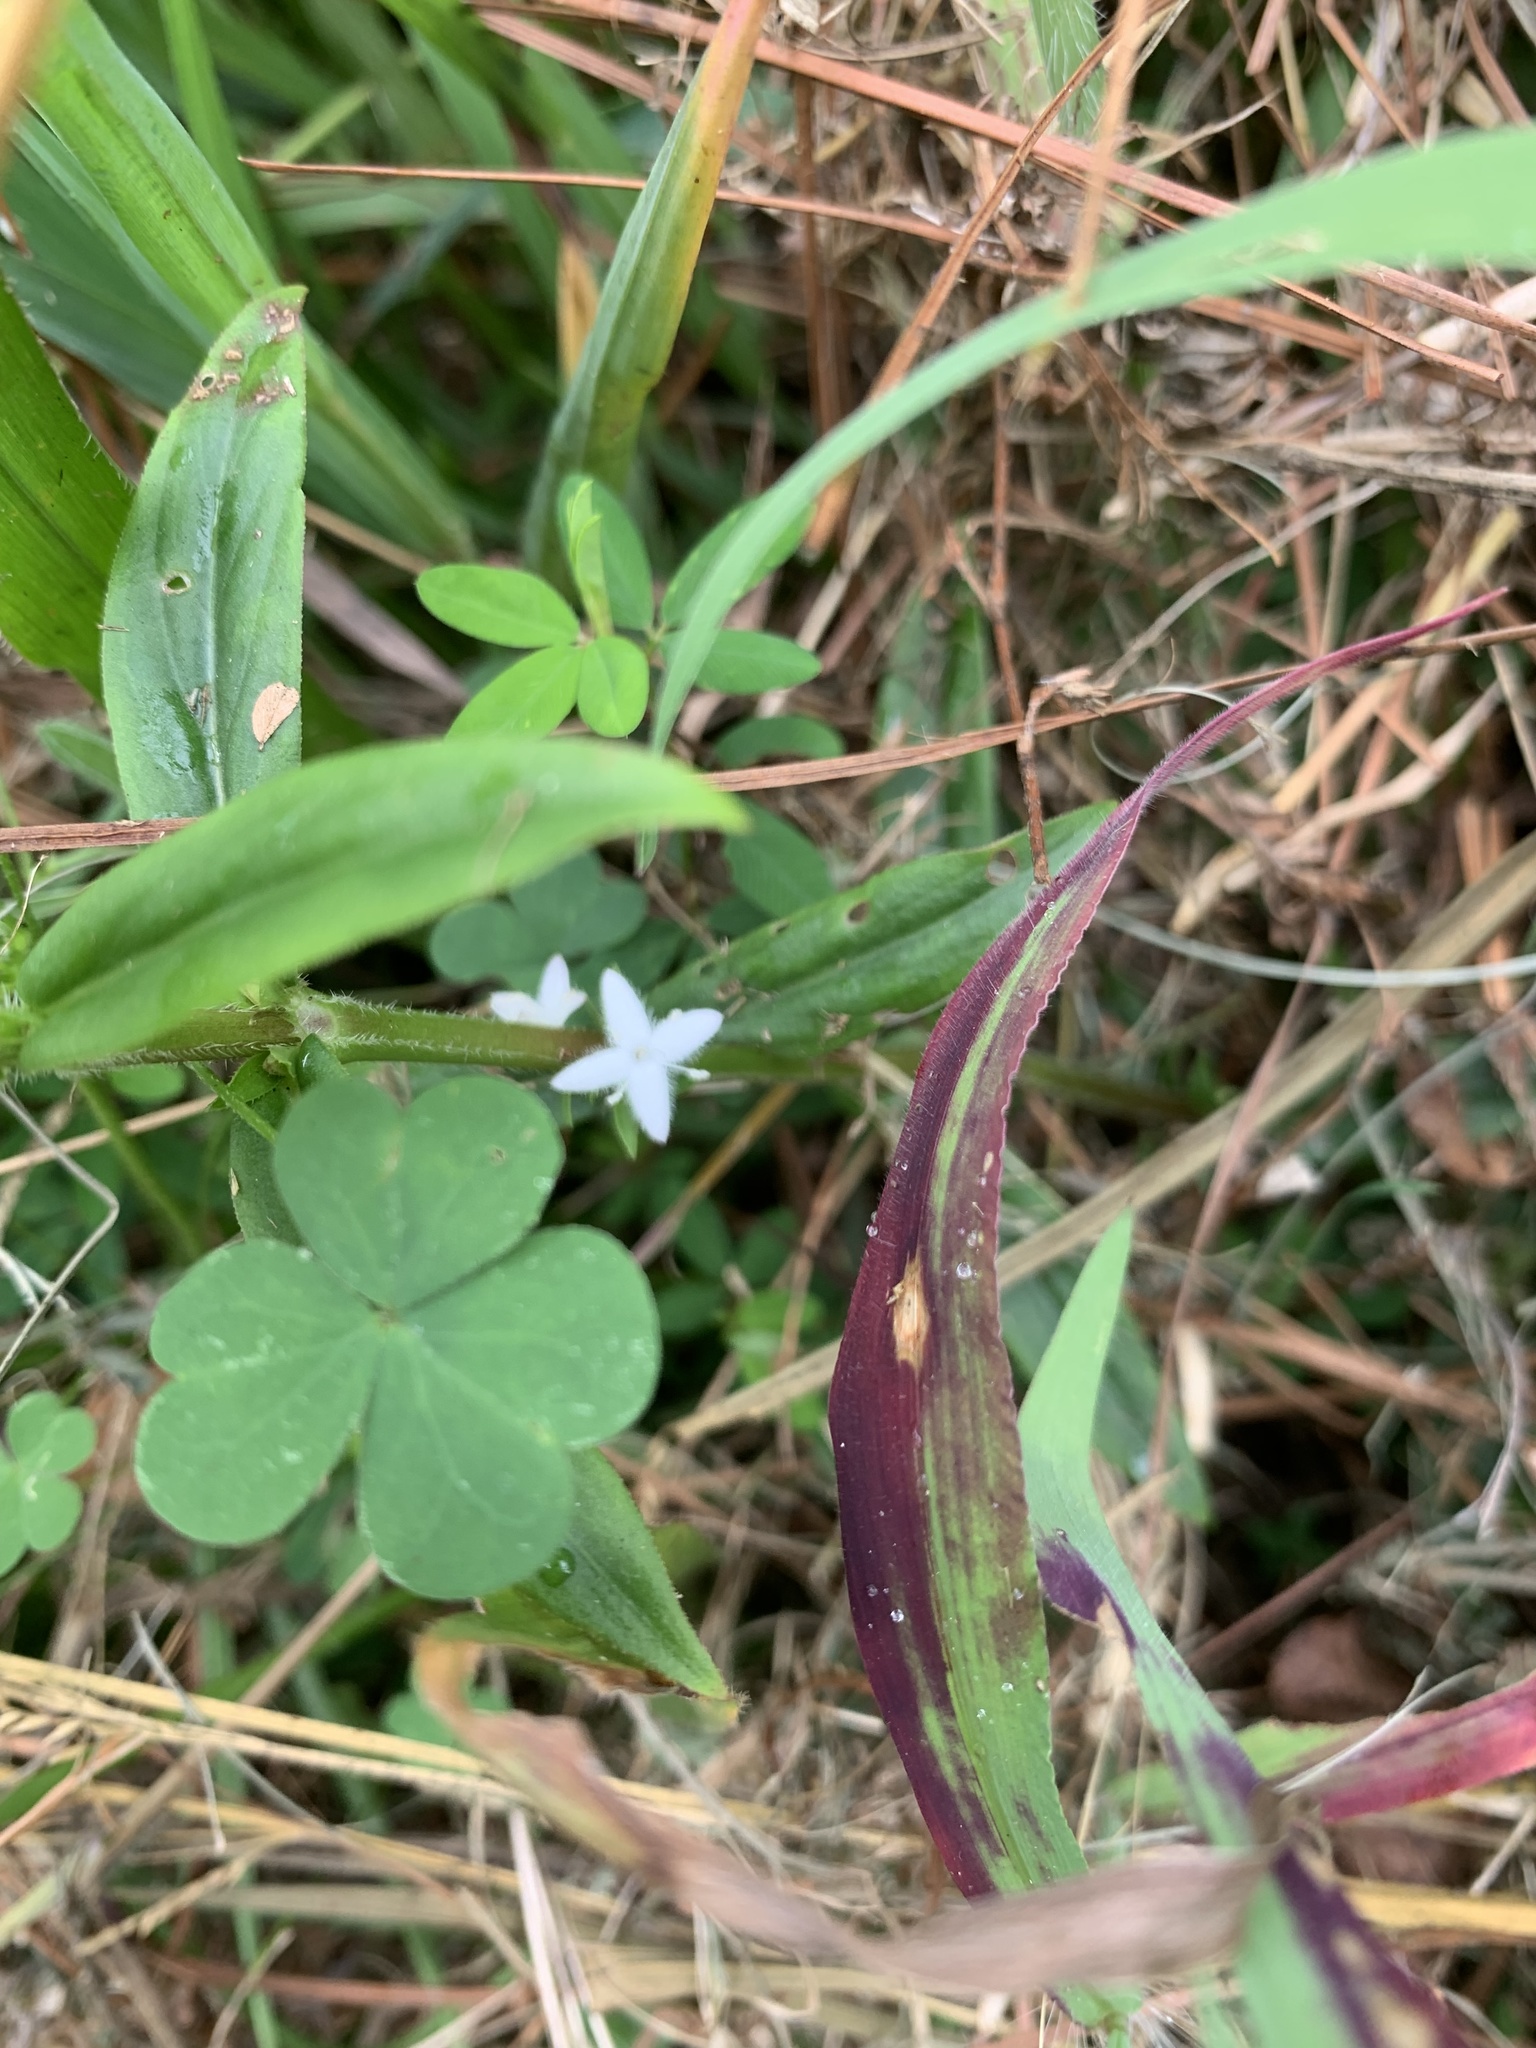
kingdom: Plantae
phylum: Tracheophyta
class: Magnoliopsida
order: Gentianales
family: Rubiaceae
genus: Diodia
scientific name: Diodia virginiana
